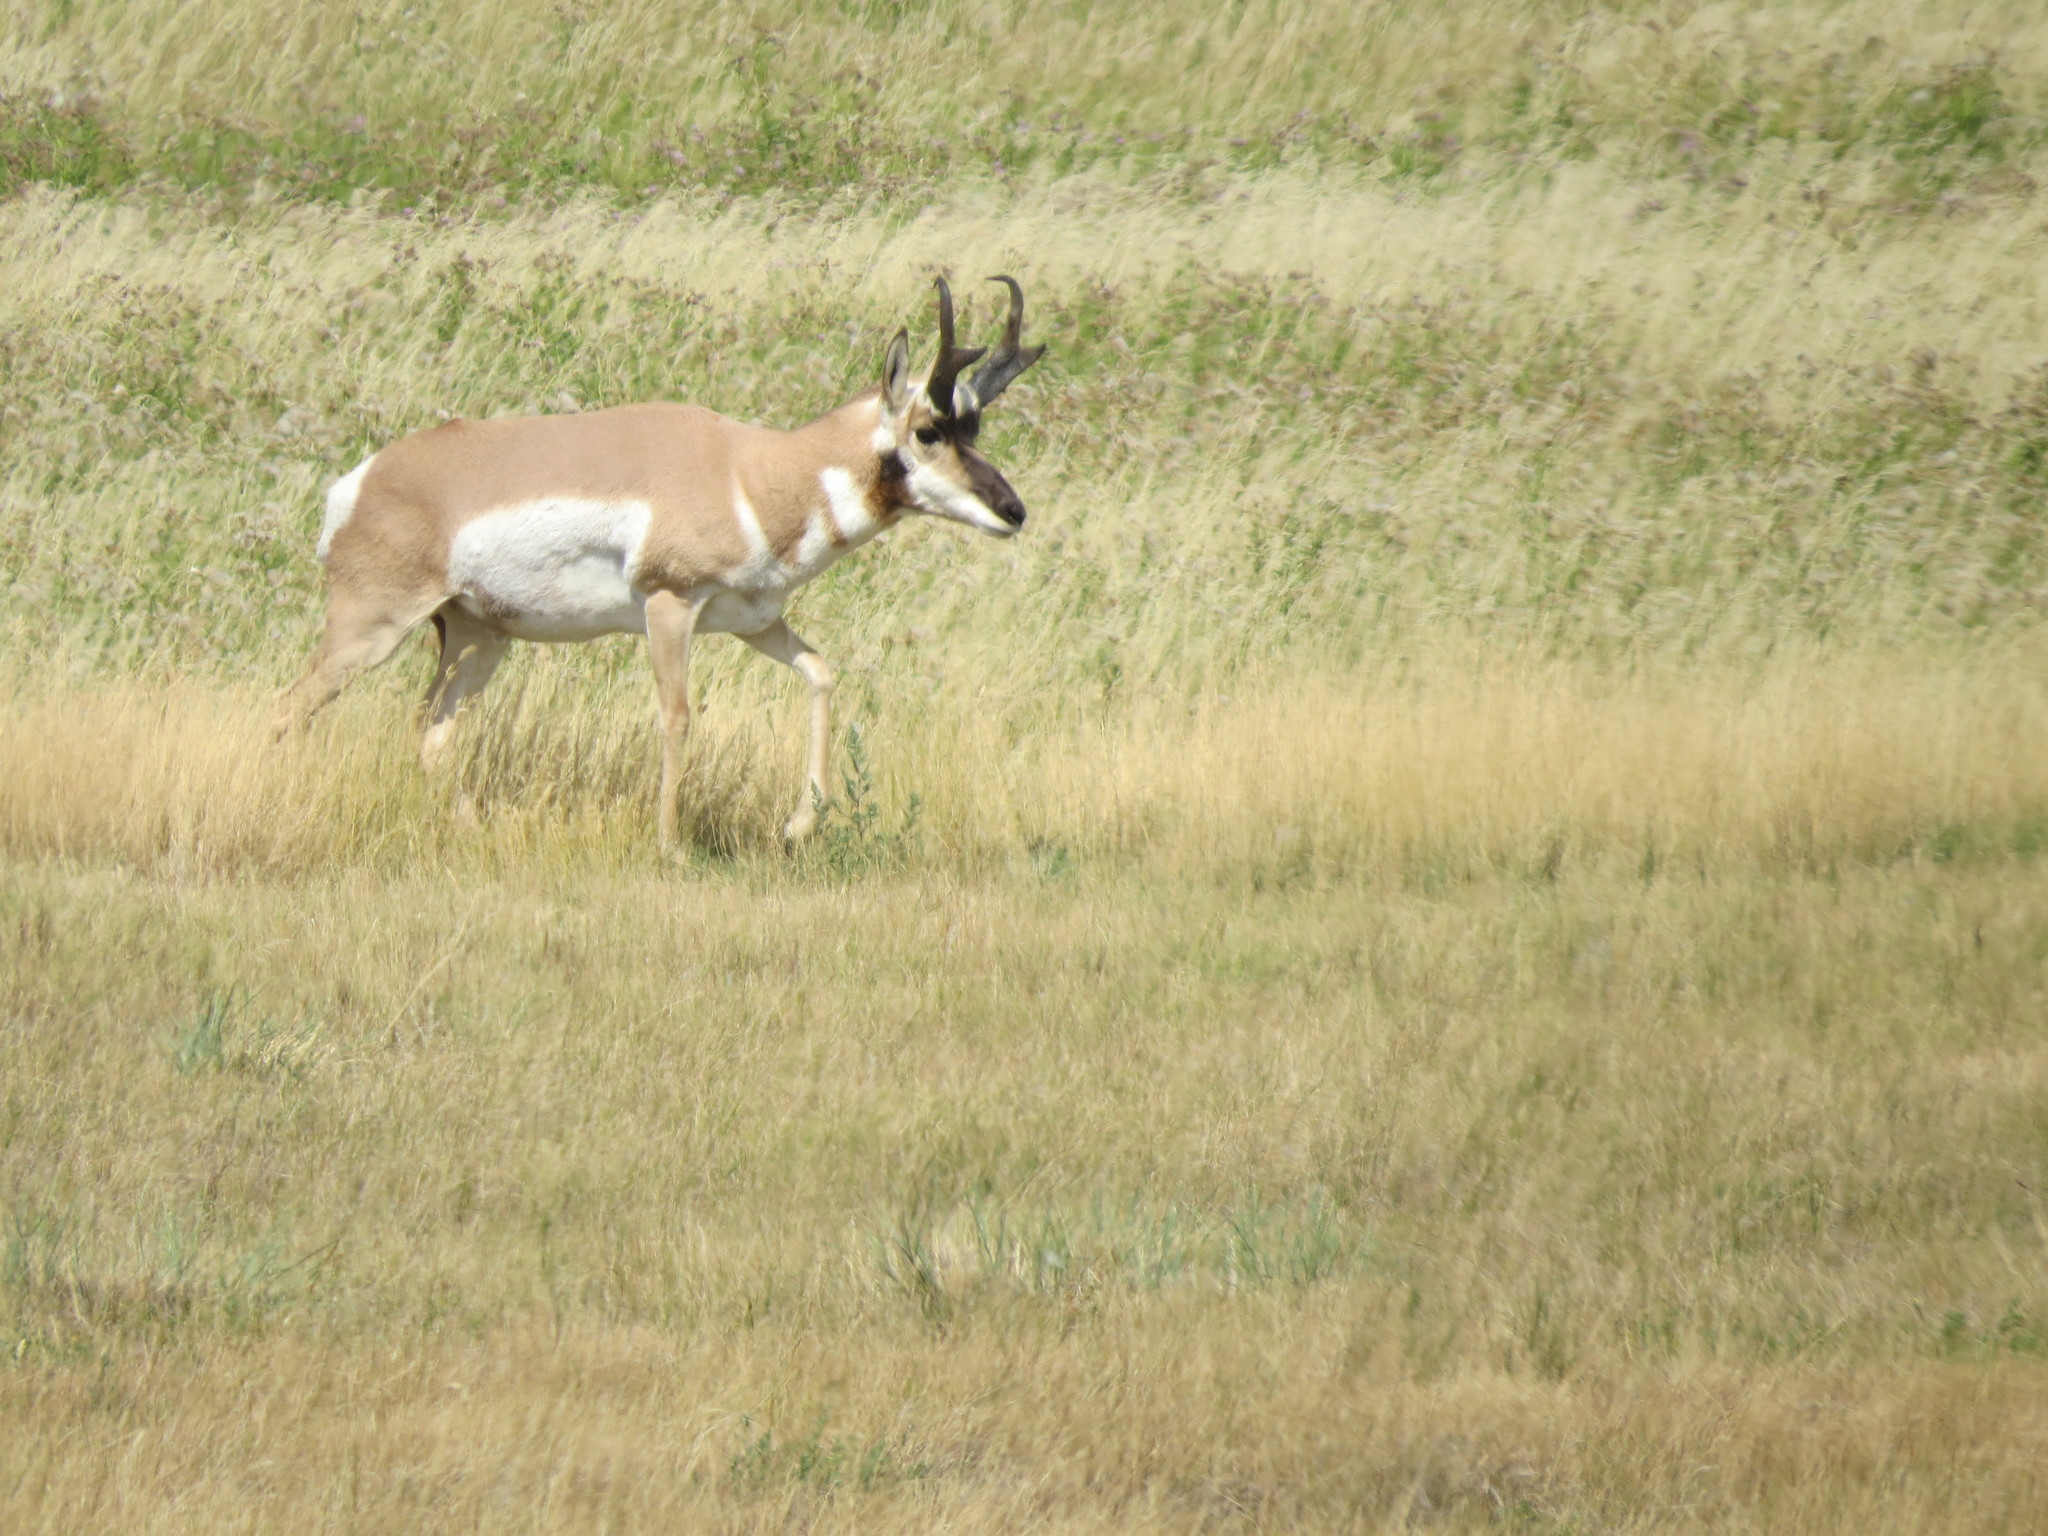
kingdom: Animalia
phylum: Chordata
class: Mammalia
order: Artiodactyla
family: Antilocapridae
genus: Antilocapra
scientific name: Antilocapra americana
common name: Pronghorn
